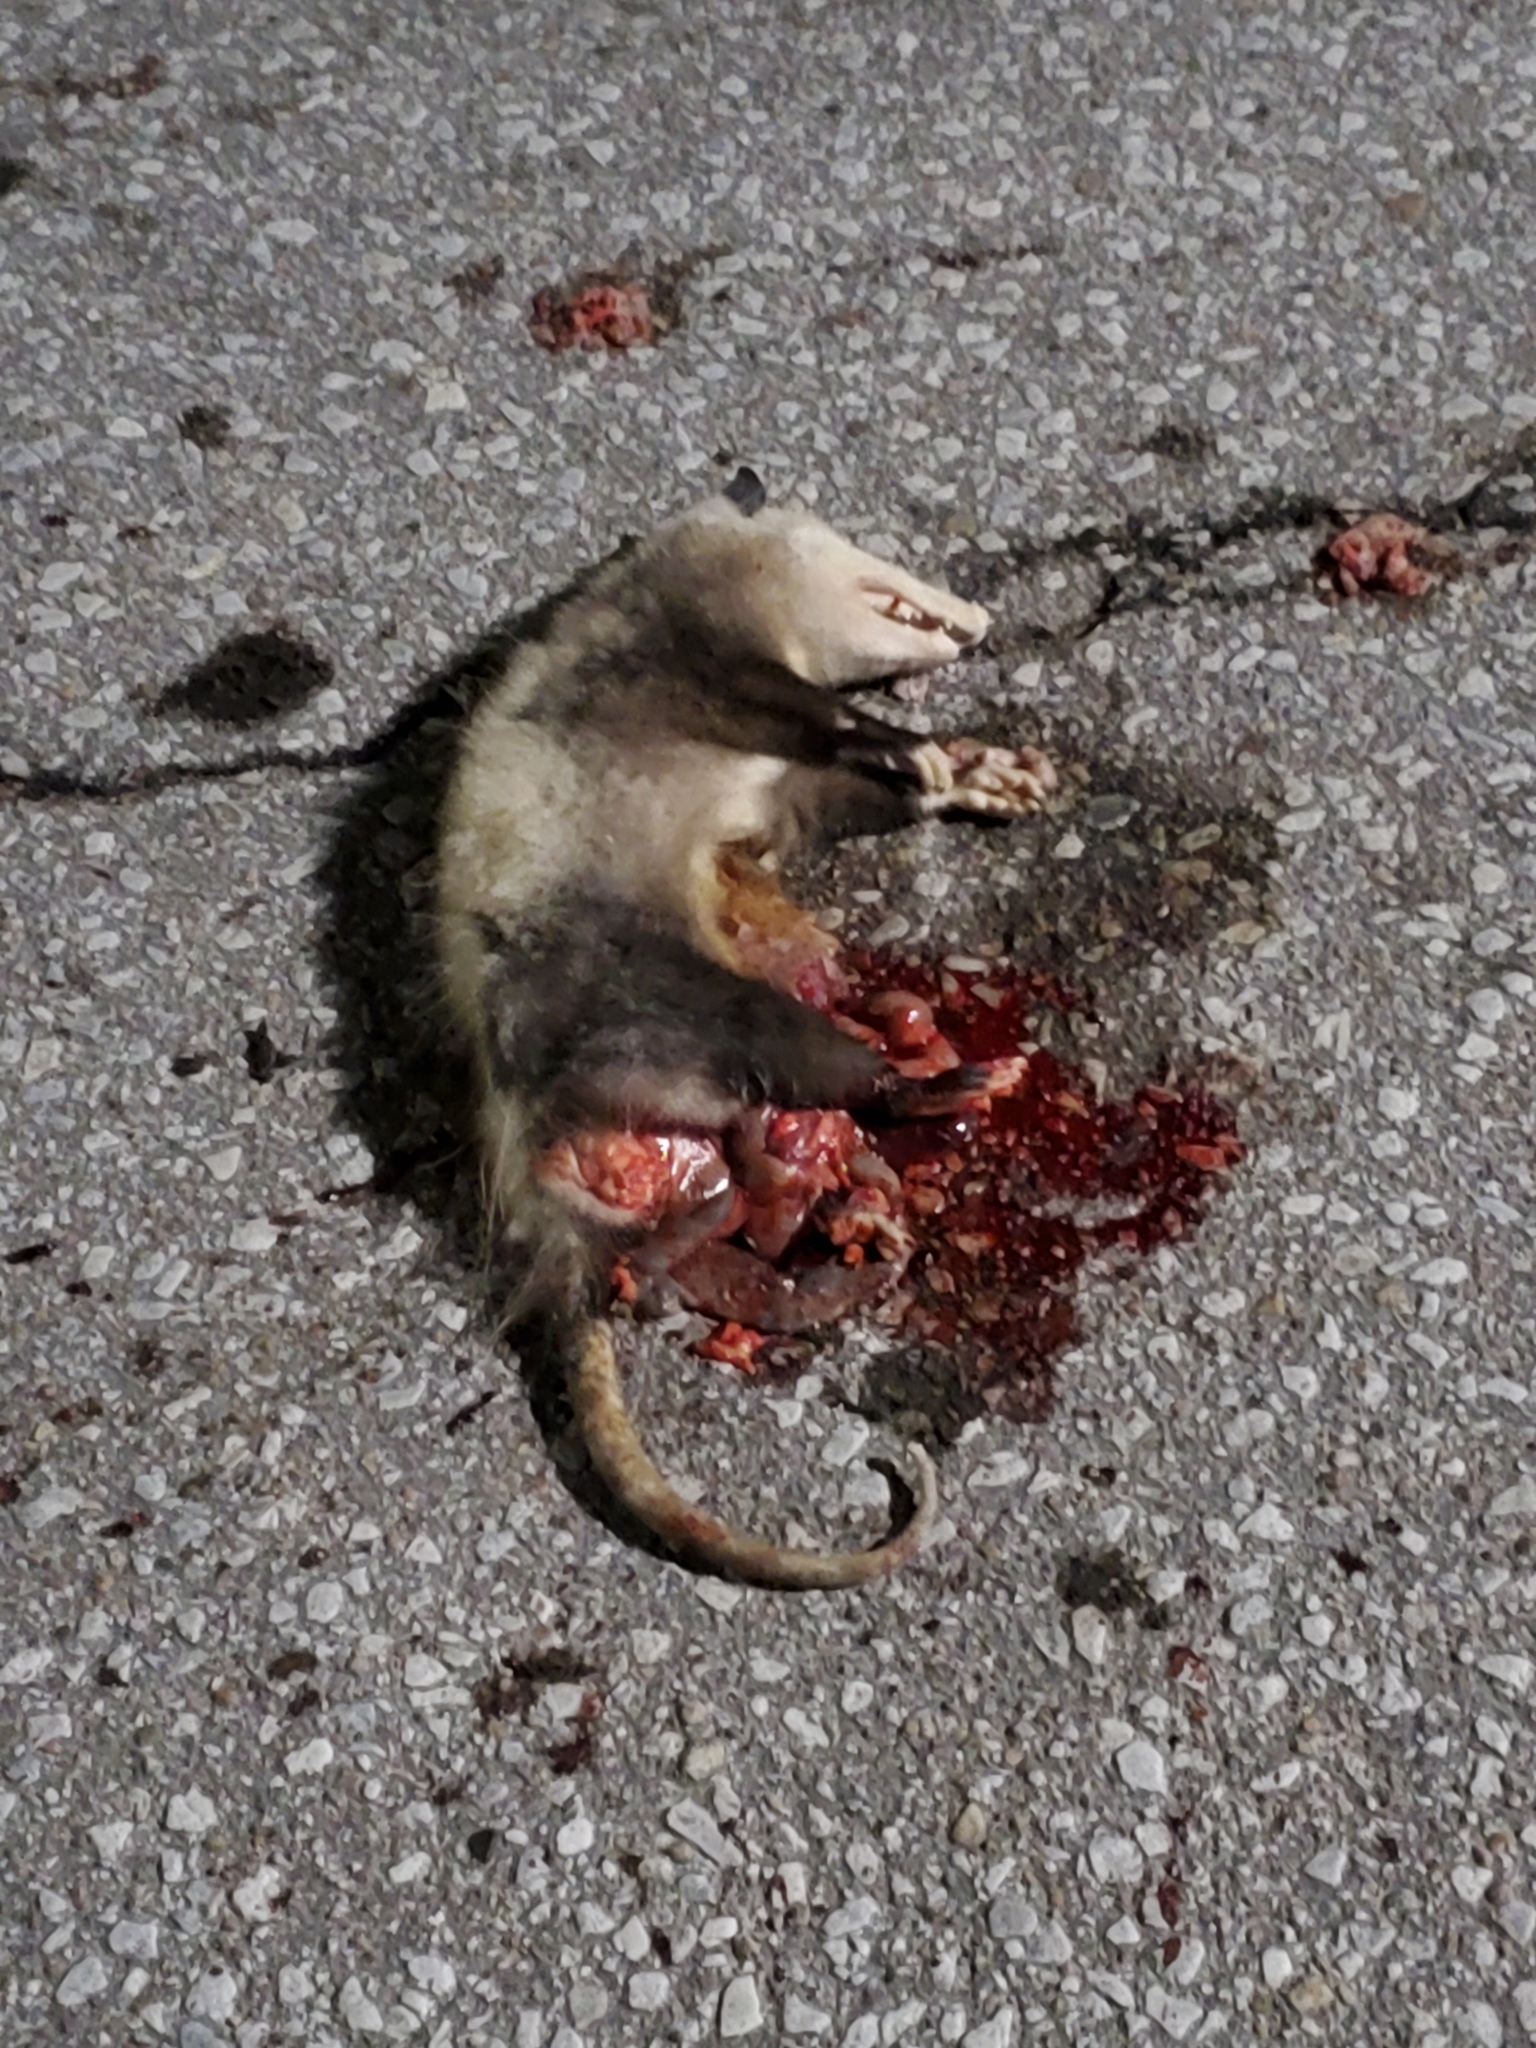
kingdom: Animalia
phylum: Chordata
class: Mammalia
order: Didelphimorphia
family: Didelphidae
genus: Didelphis
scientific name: Didelphis virginiana
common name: Virginia opossum
